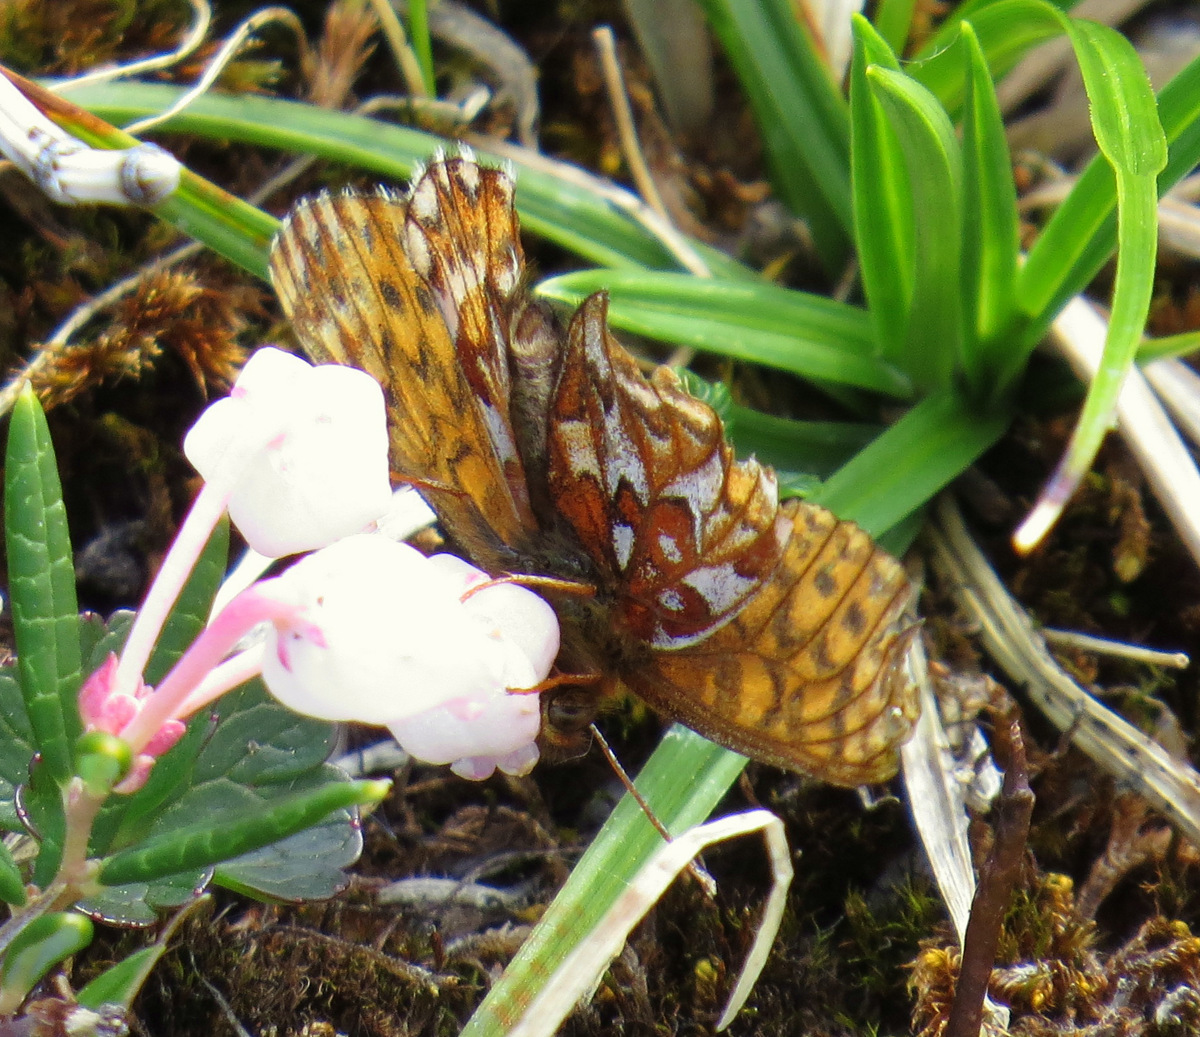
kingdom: Animalia
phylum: Arthropoda
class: Insecta
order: Lepidoptera
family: Nymphalidae
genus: Argynnis
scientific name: Argynnis butleri
